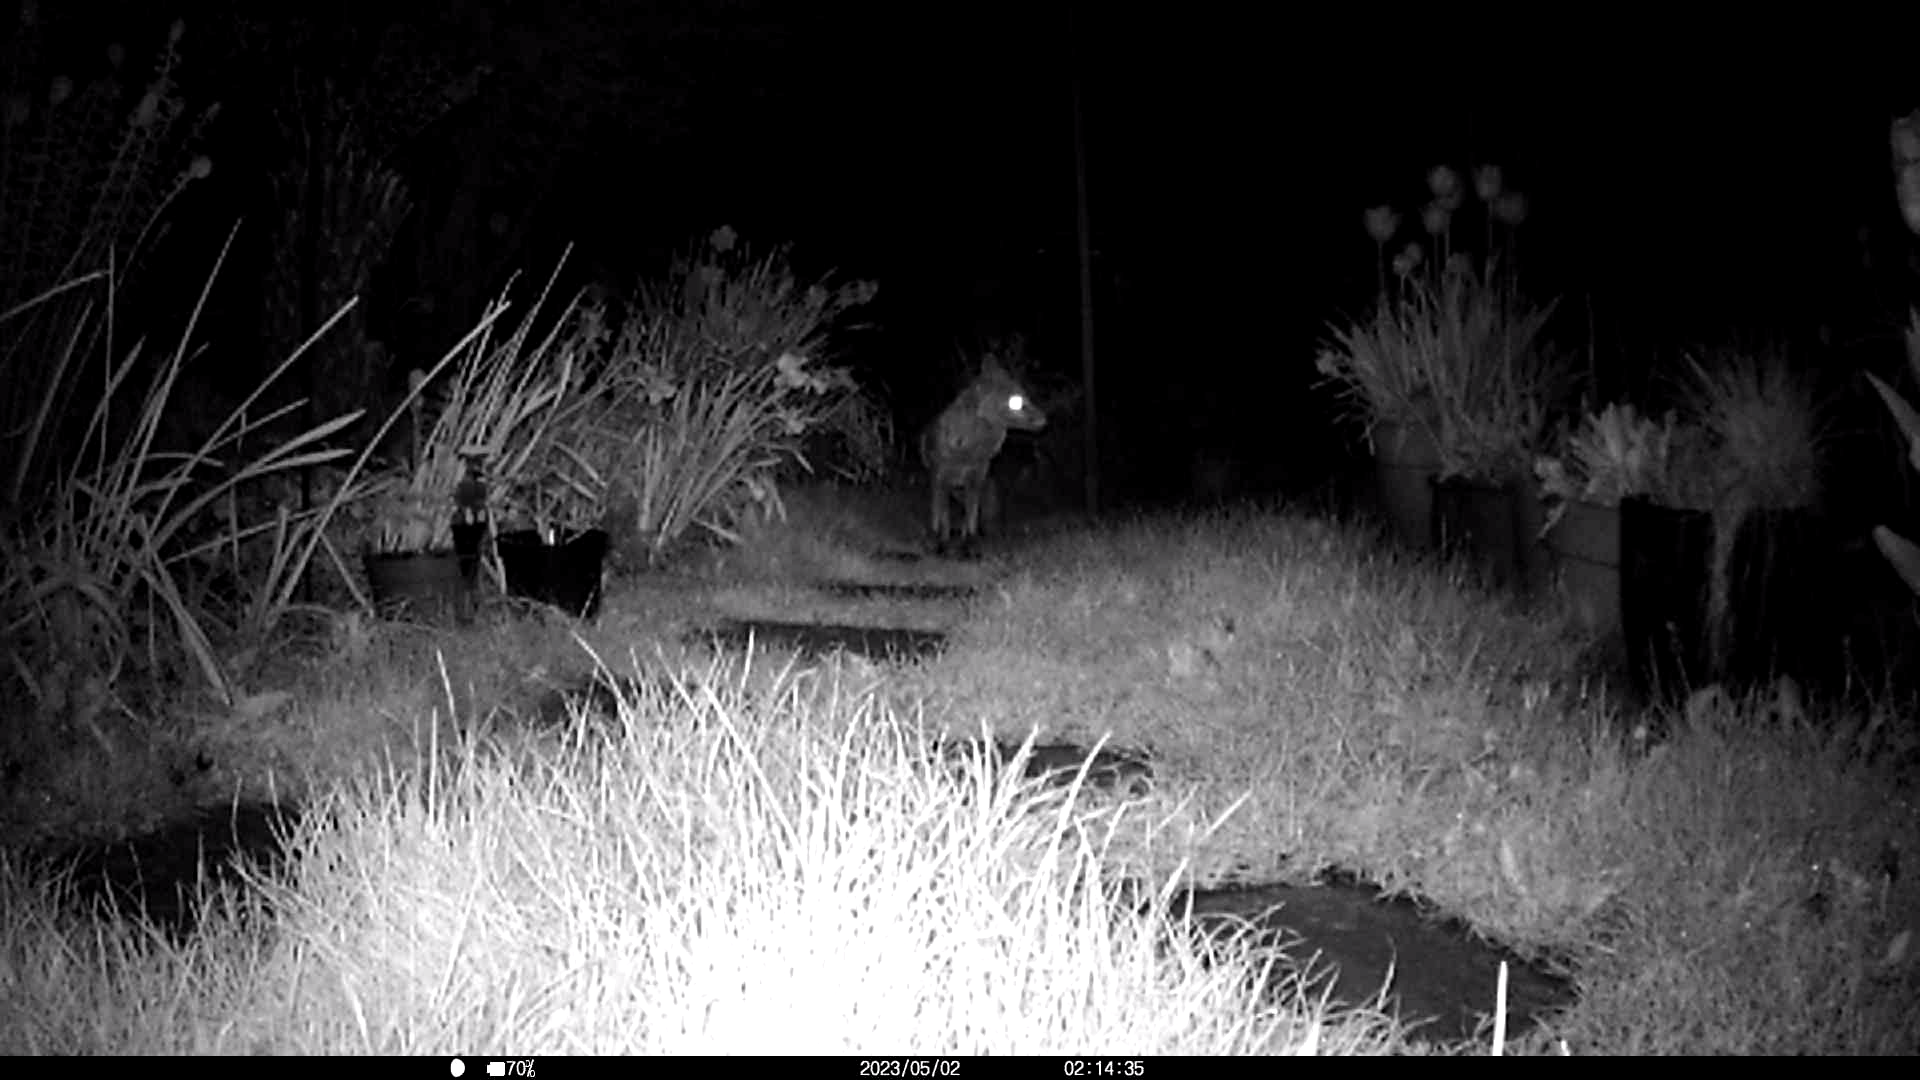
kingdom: Animalia
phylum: Chordata
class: Mammalia
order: Carnivora
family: Canidae
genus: Vulpes
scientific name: Vulpes vulpes
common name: Red fox
